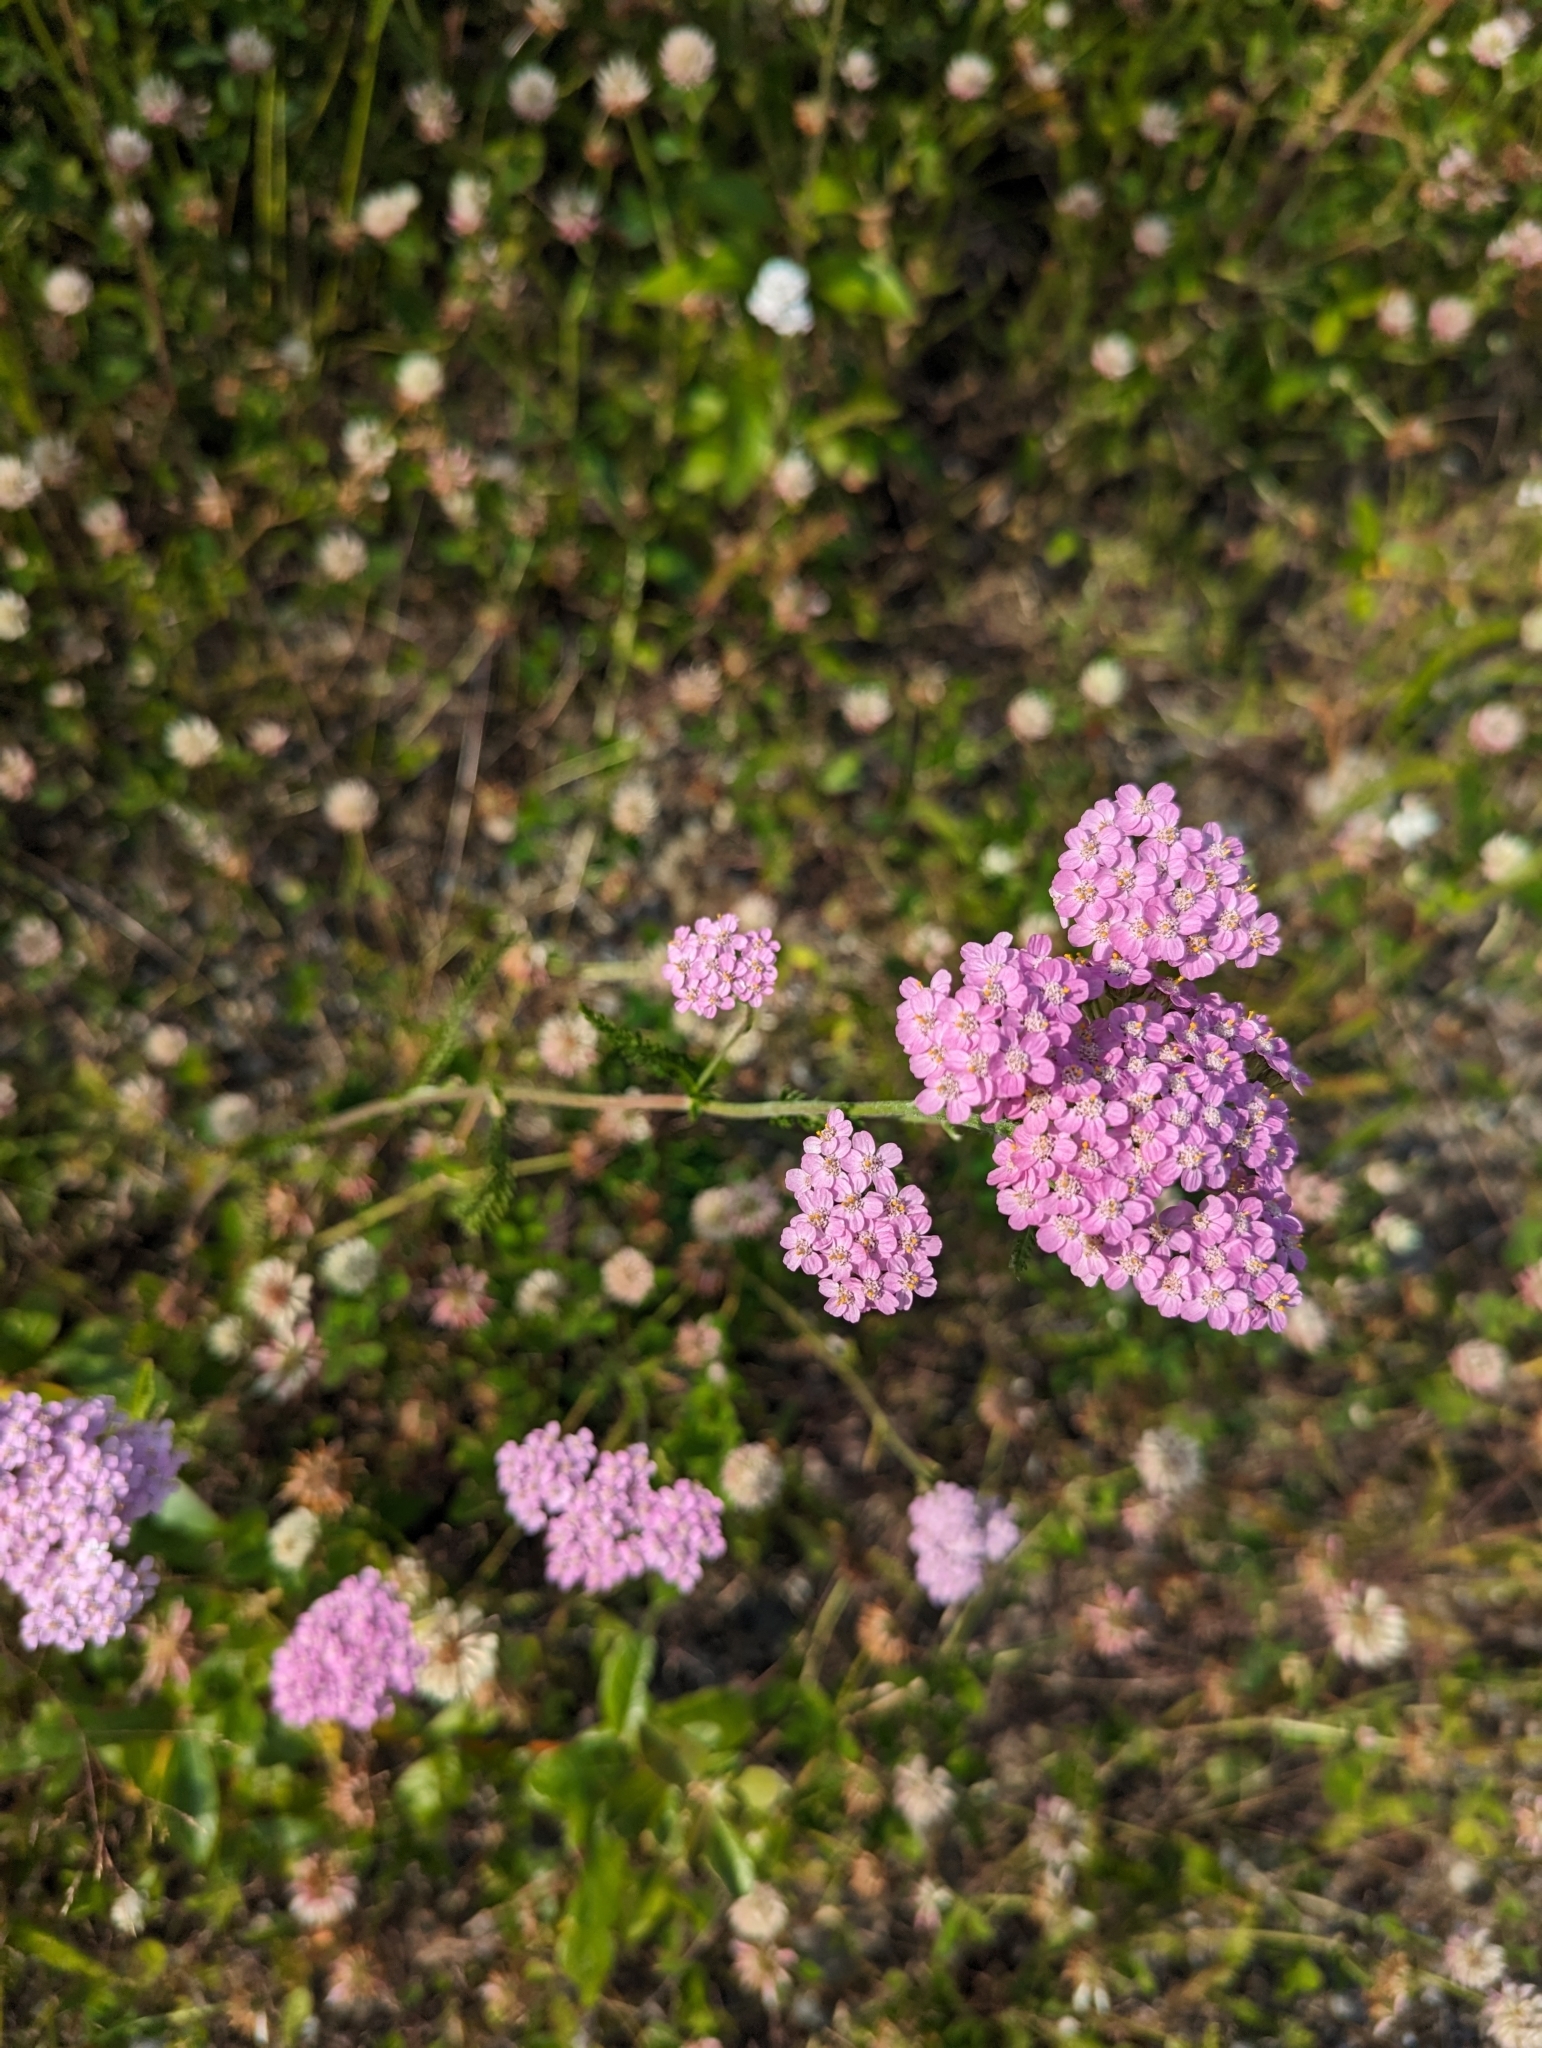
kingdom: Plantae
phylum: Tracheophyta
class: Magnoliopsida
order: Asterales
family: Asteraceae
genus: Achillea
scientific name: Achillea millefolium
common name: Yarrow
